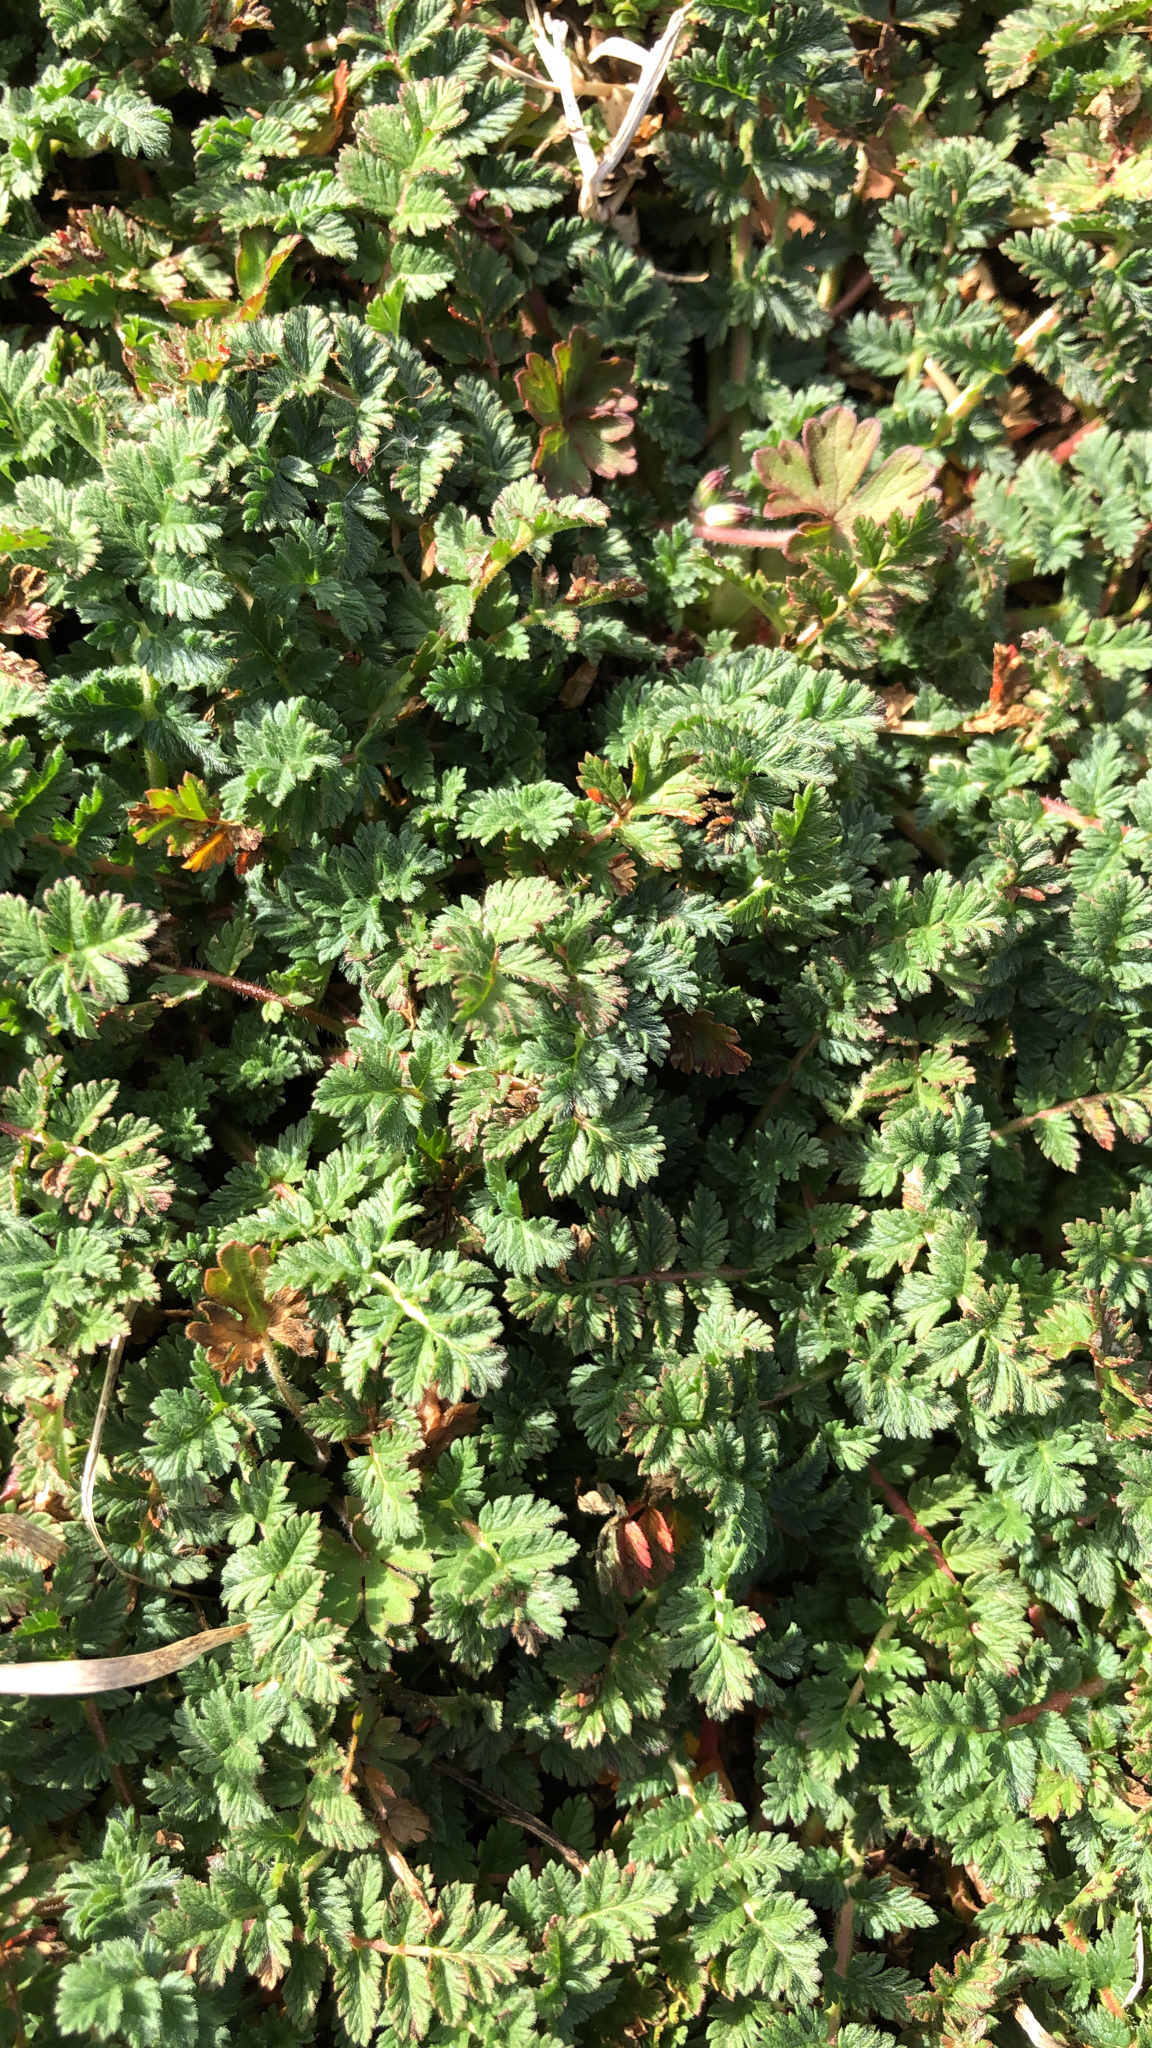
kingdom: Plantae
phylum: Tracheophyta
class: Magnoliopsida
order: Geraniales
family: Geraniaceae
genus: Erodium
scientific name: Erodium cicutarium
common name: Common stork's-bill
